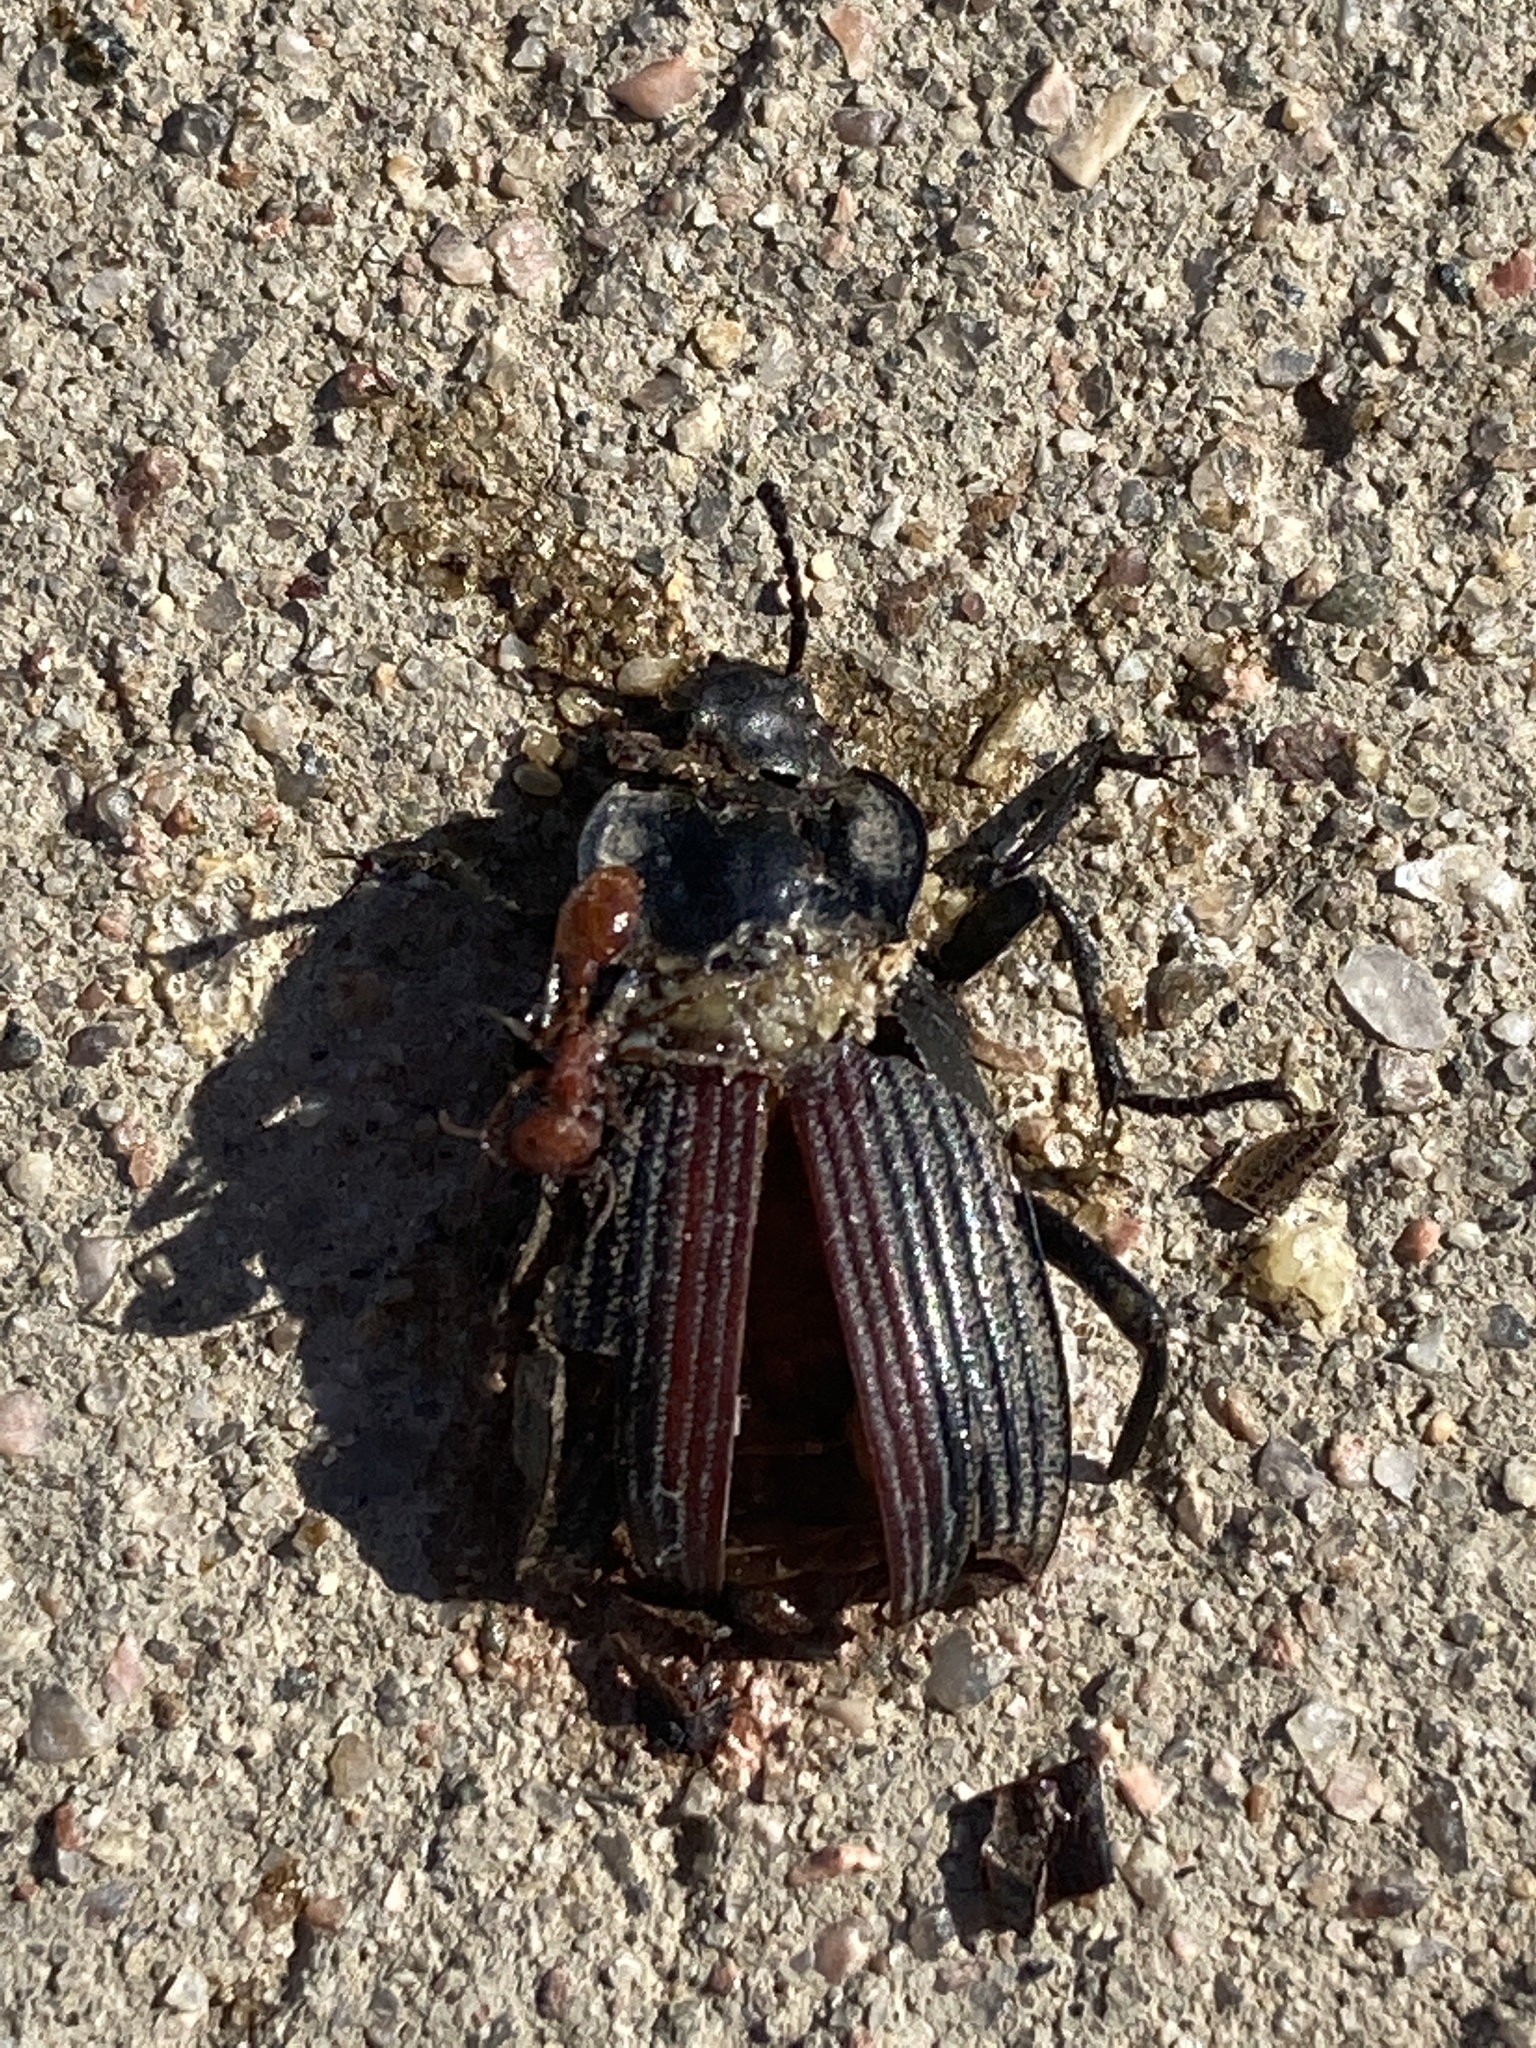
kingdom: Animalia
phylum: Arthropoda
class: Insecta
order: Coleoptera
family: Tenebrionidae
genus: Eleodes
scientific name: Eleodes suturalis
